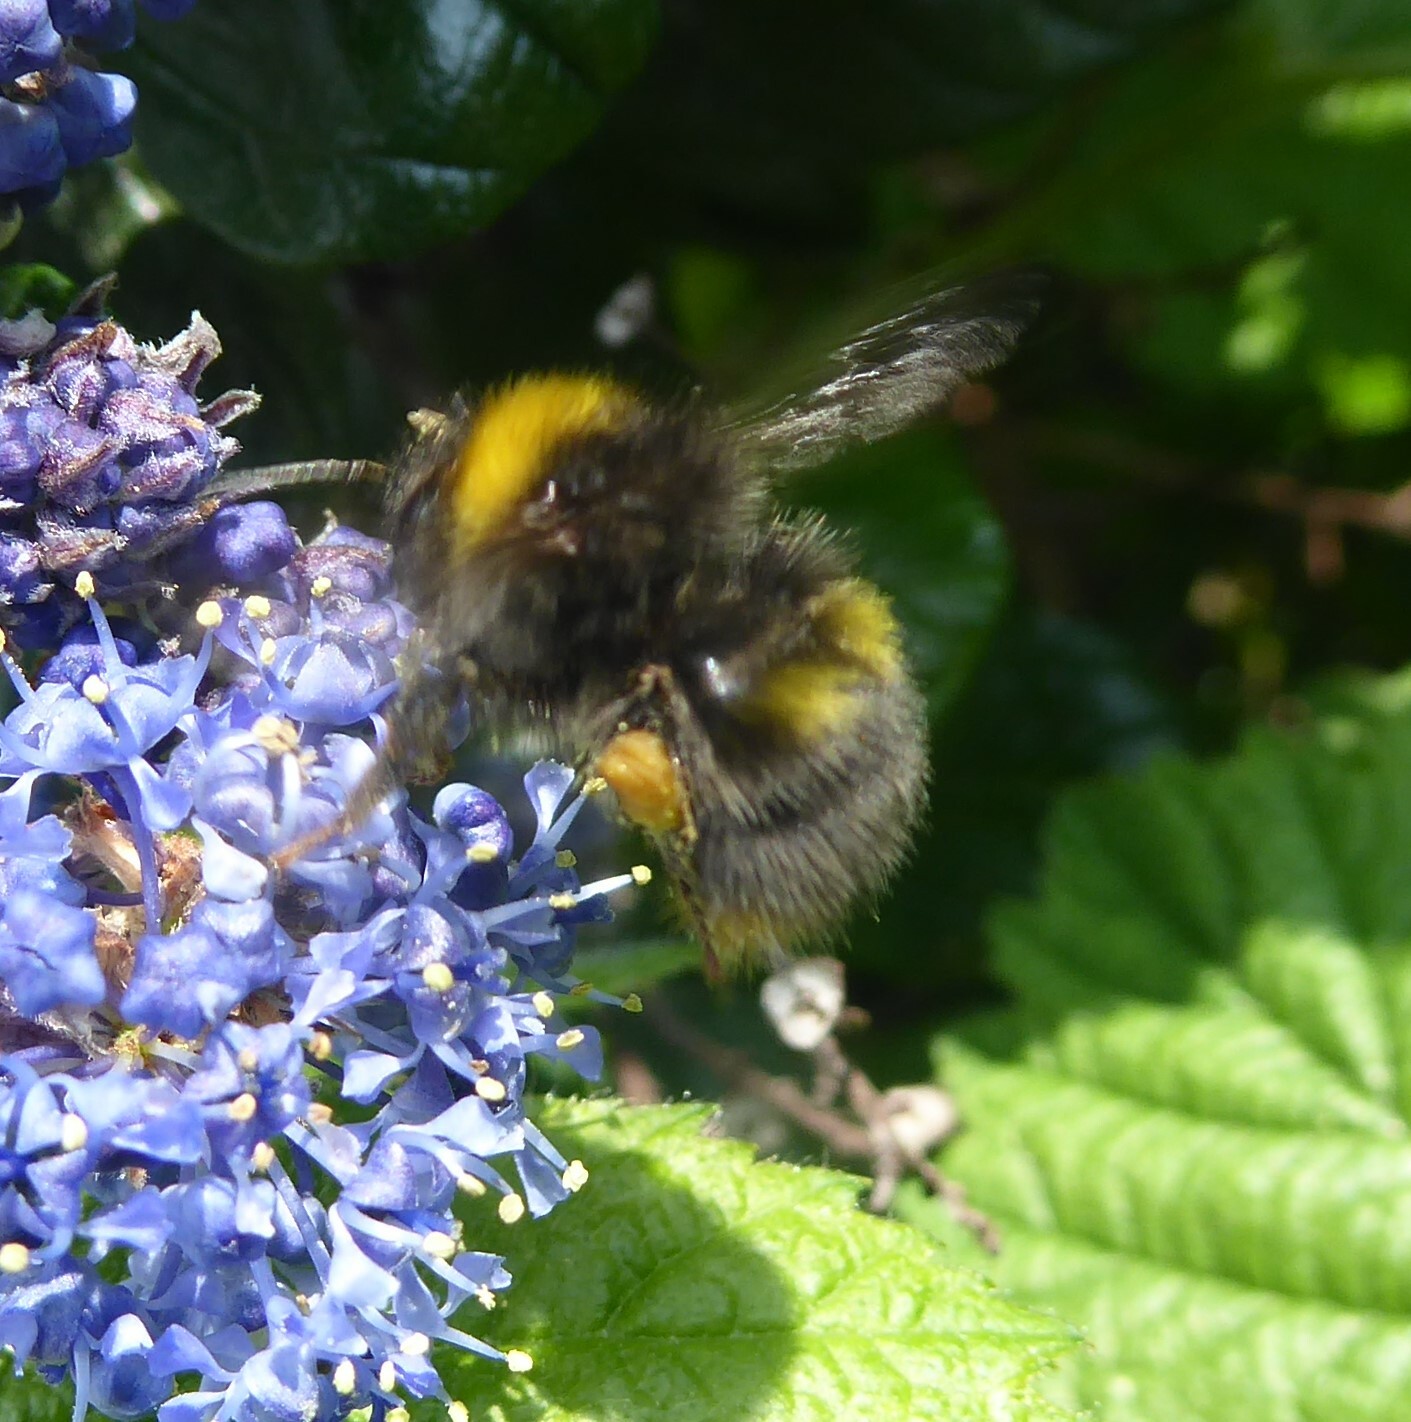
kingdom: Animalia
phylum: Arthropoda
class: Insecta
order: Hymenoptera
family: Apidae
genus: Bombus
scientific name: Bombus pratorum
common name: Early humble-bee
